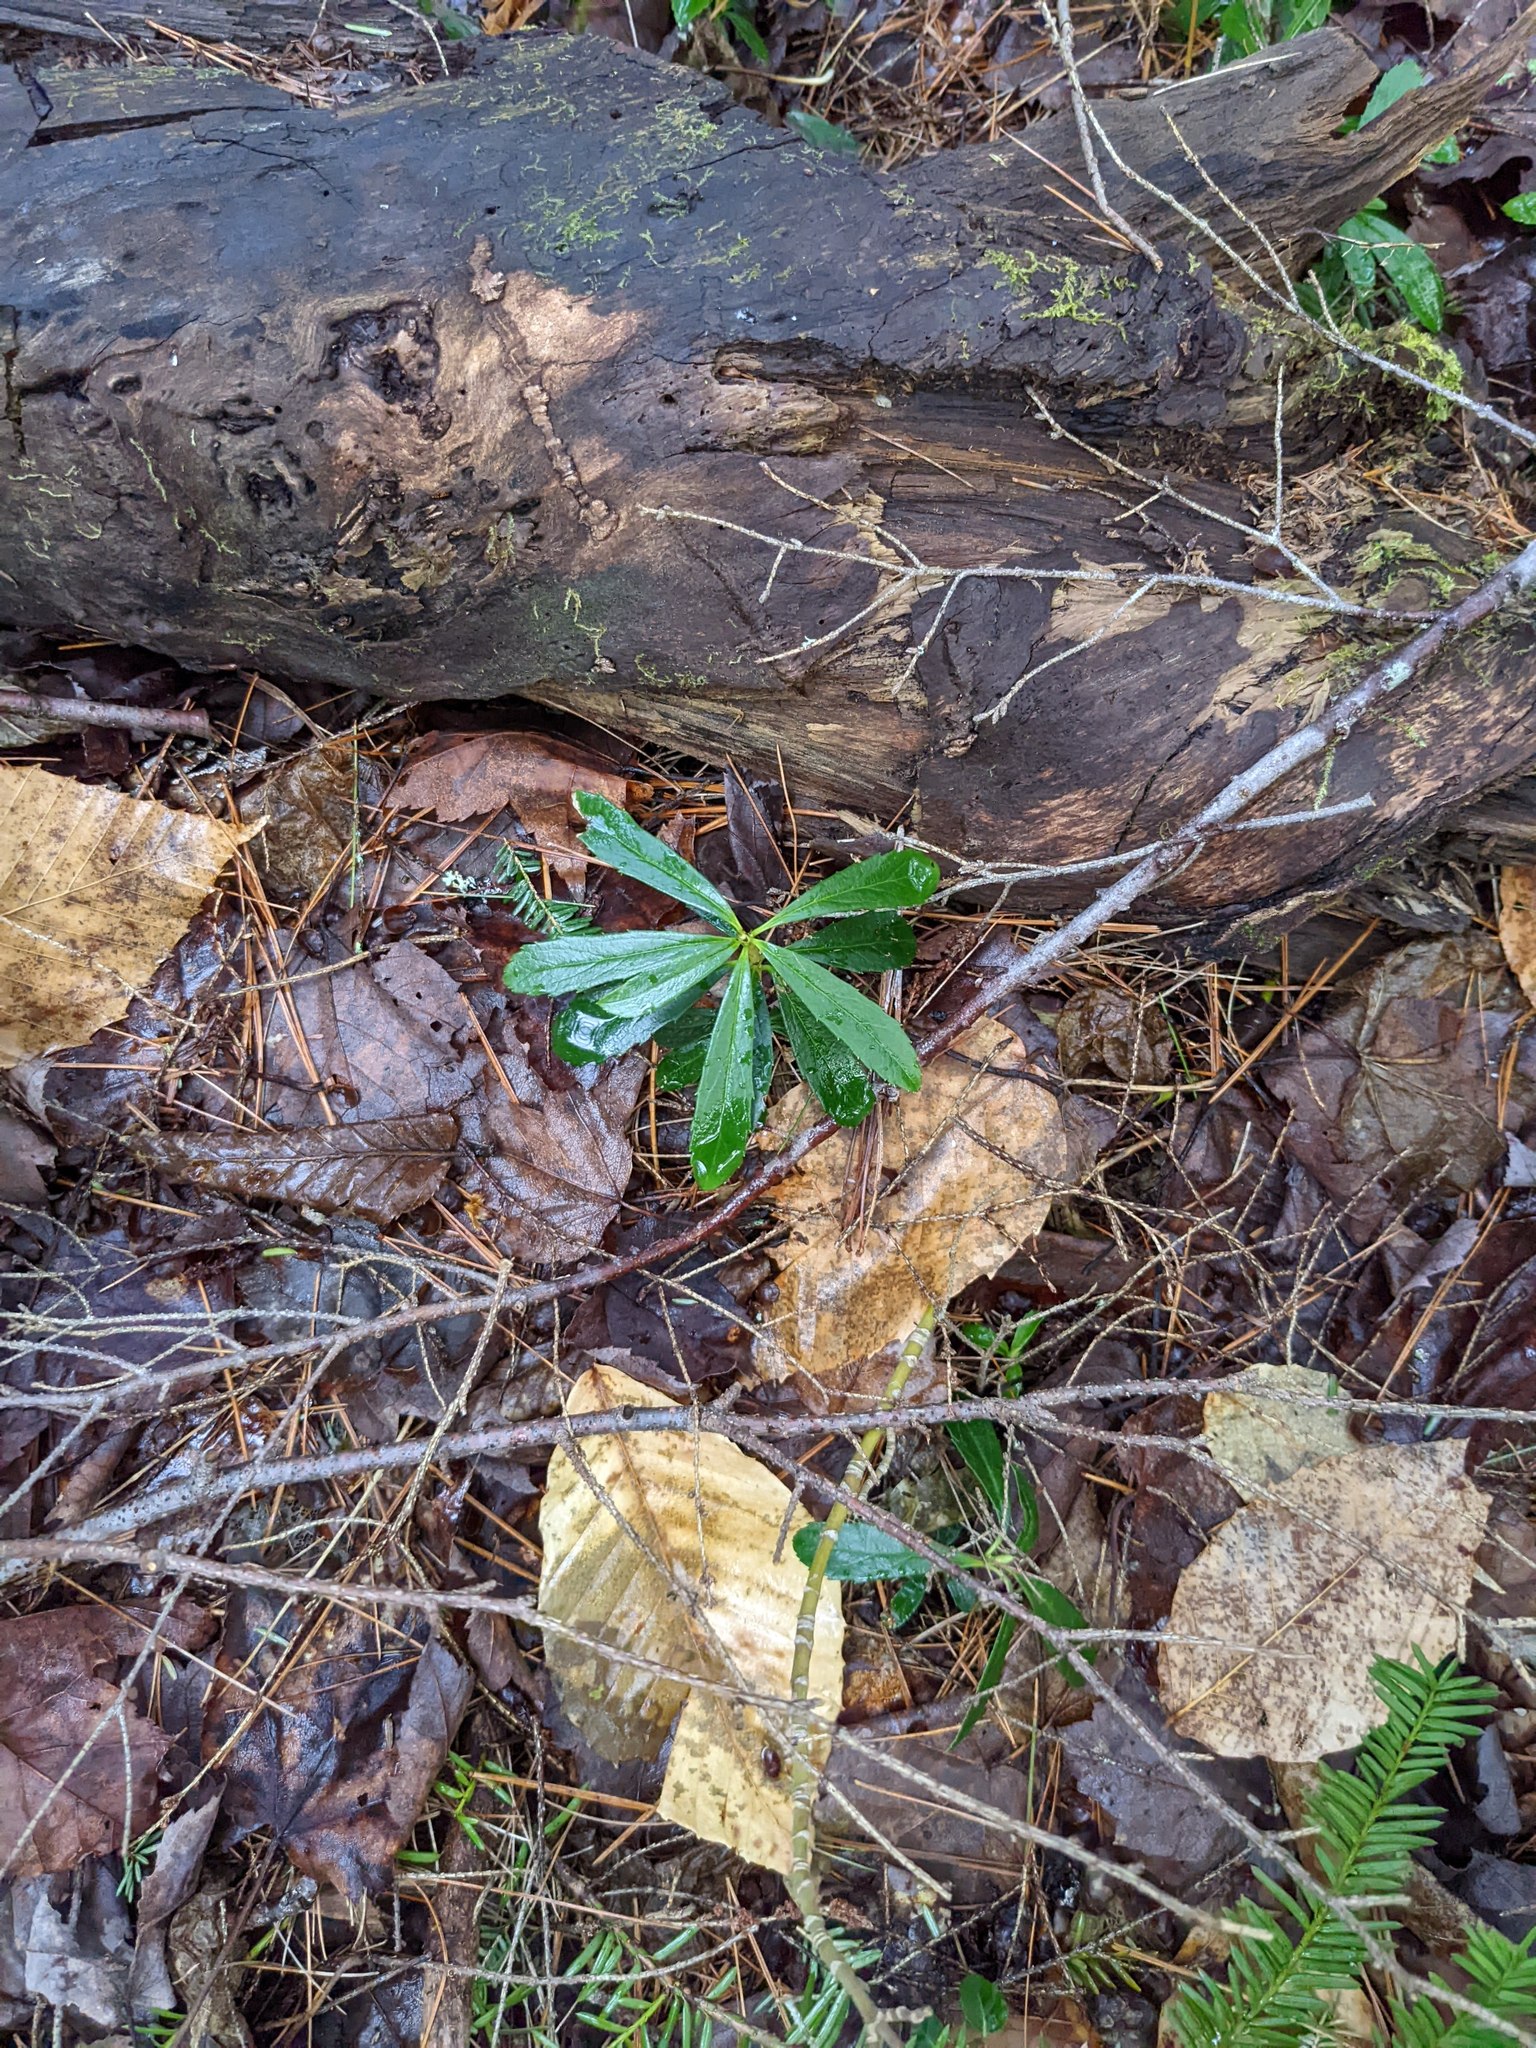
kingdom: Plantae
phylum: Tracheophyta
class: Magnoliopsida
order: Ericales
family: Ericaceae
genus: Chimaphila
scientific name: Chimaphila umbellata
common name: Pipsissewa
